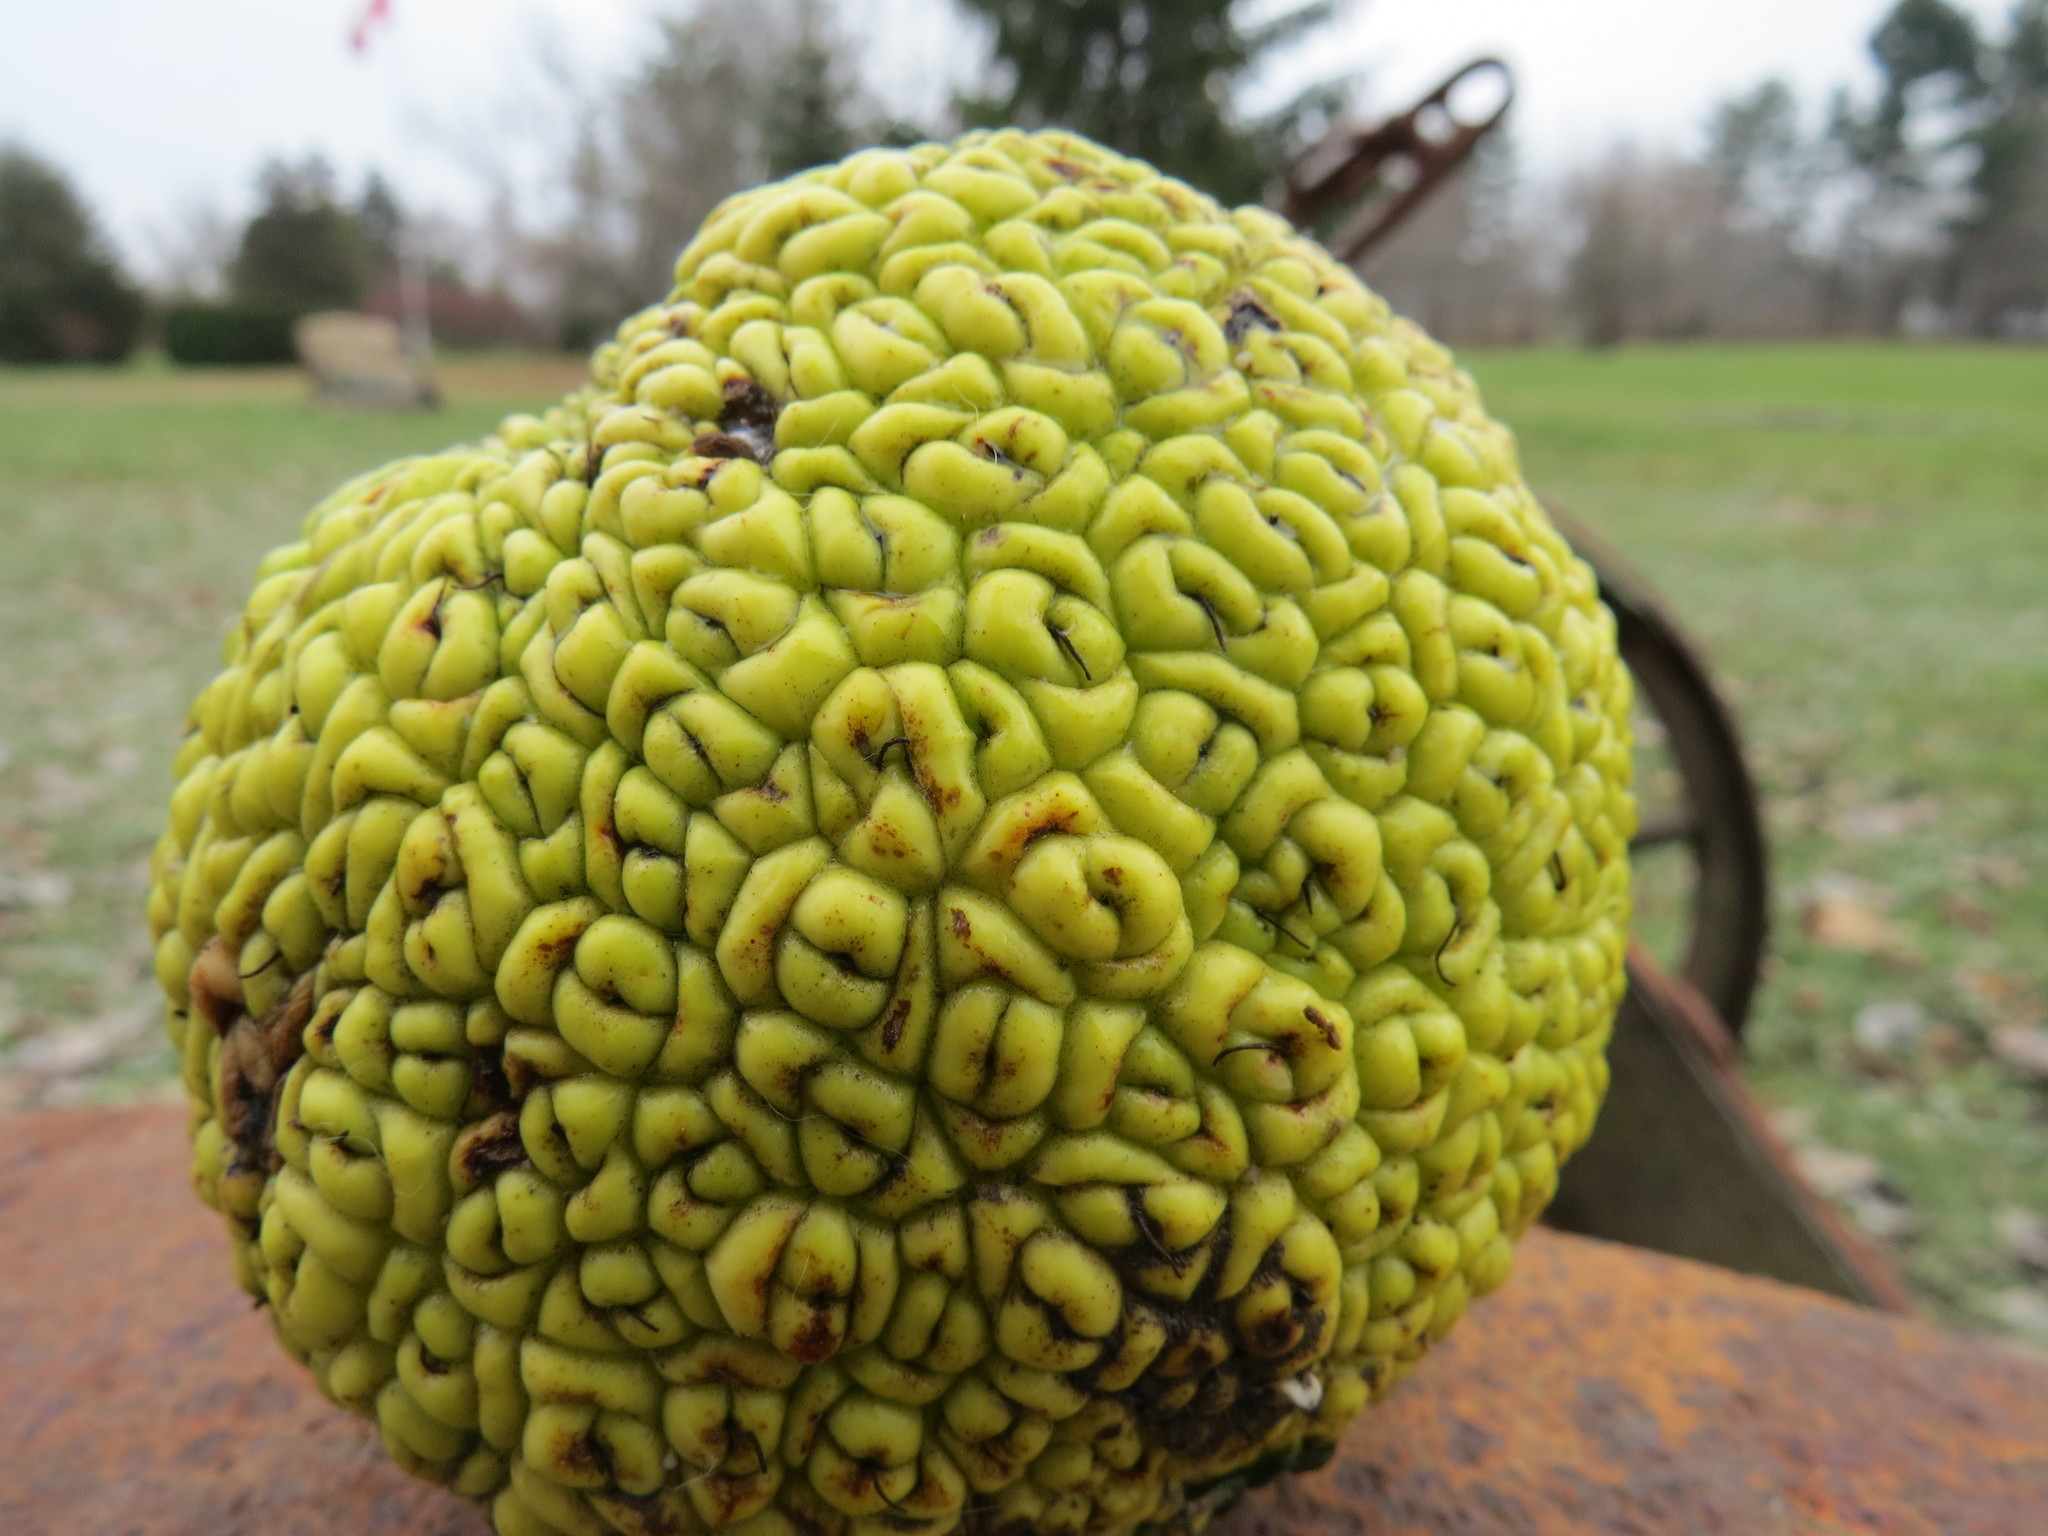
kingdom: Plantae
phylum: Tracheophyta
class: Magnoliopsida
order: Rosales
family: Moraceae
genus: Maclura
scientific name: Maclura pomifera
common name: Osage-orange
